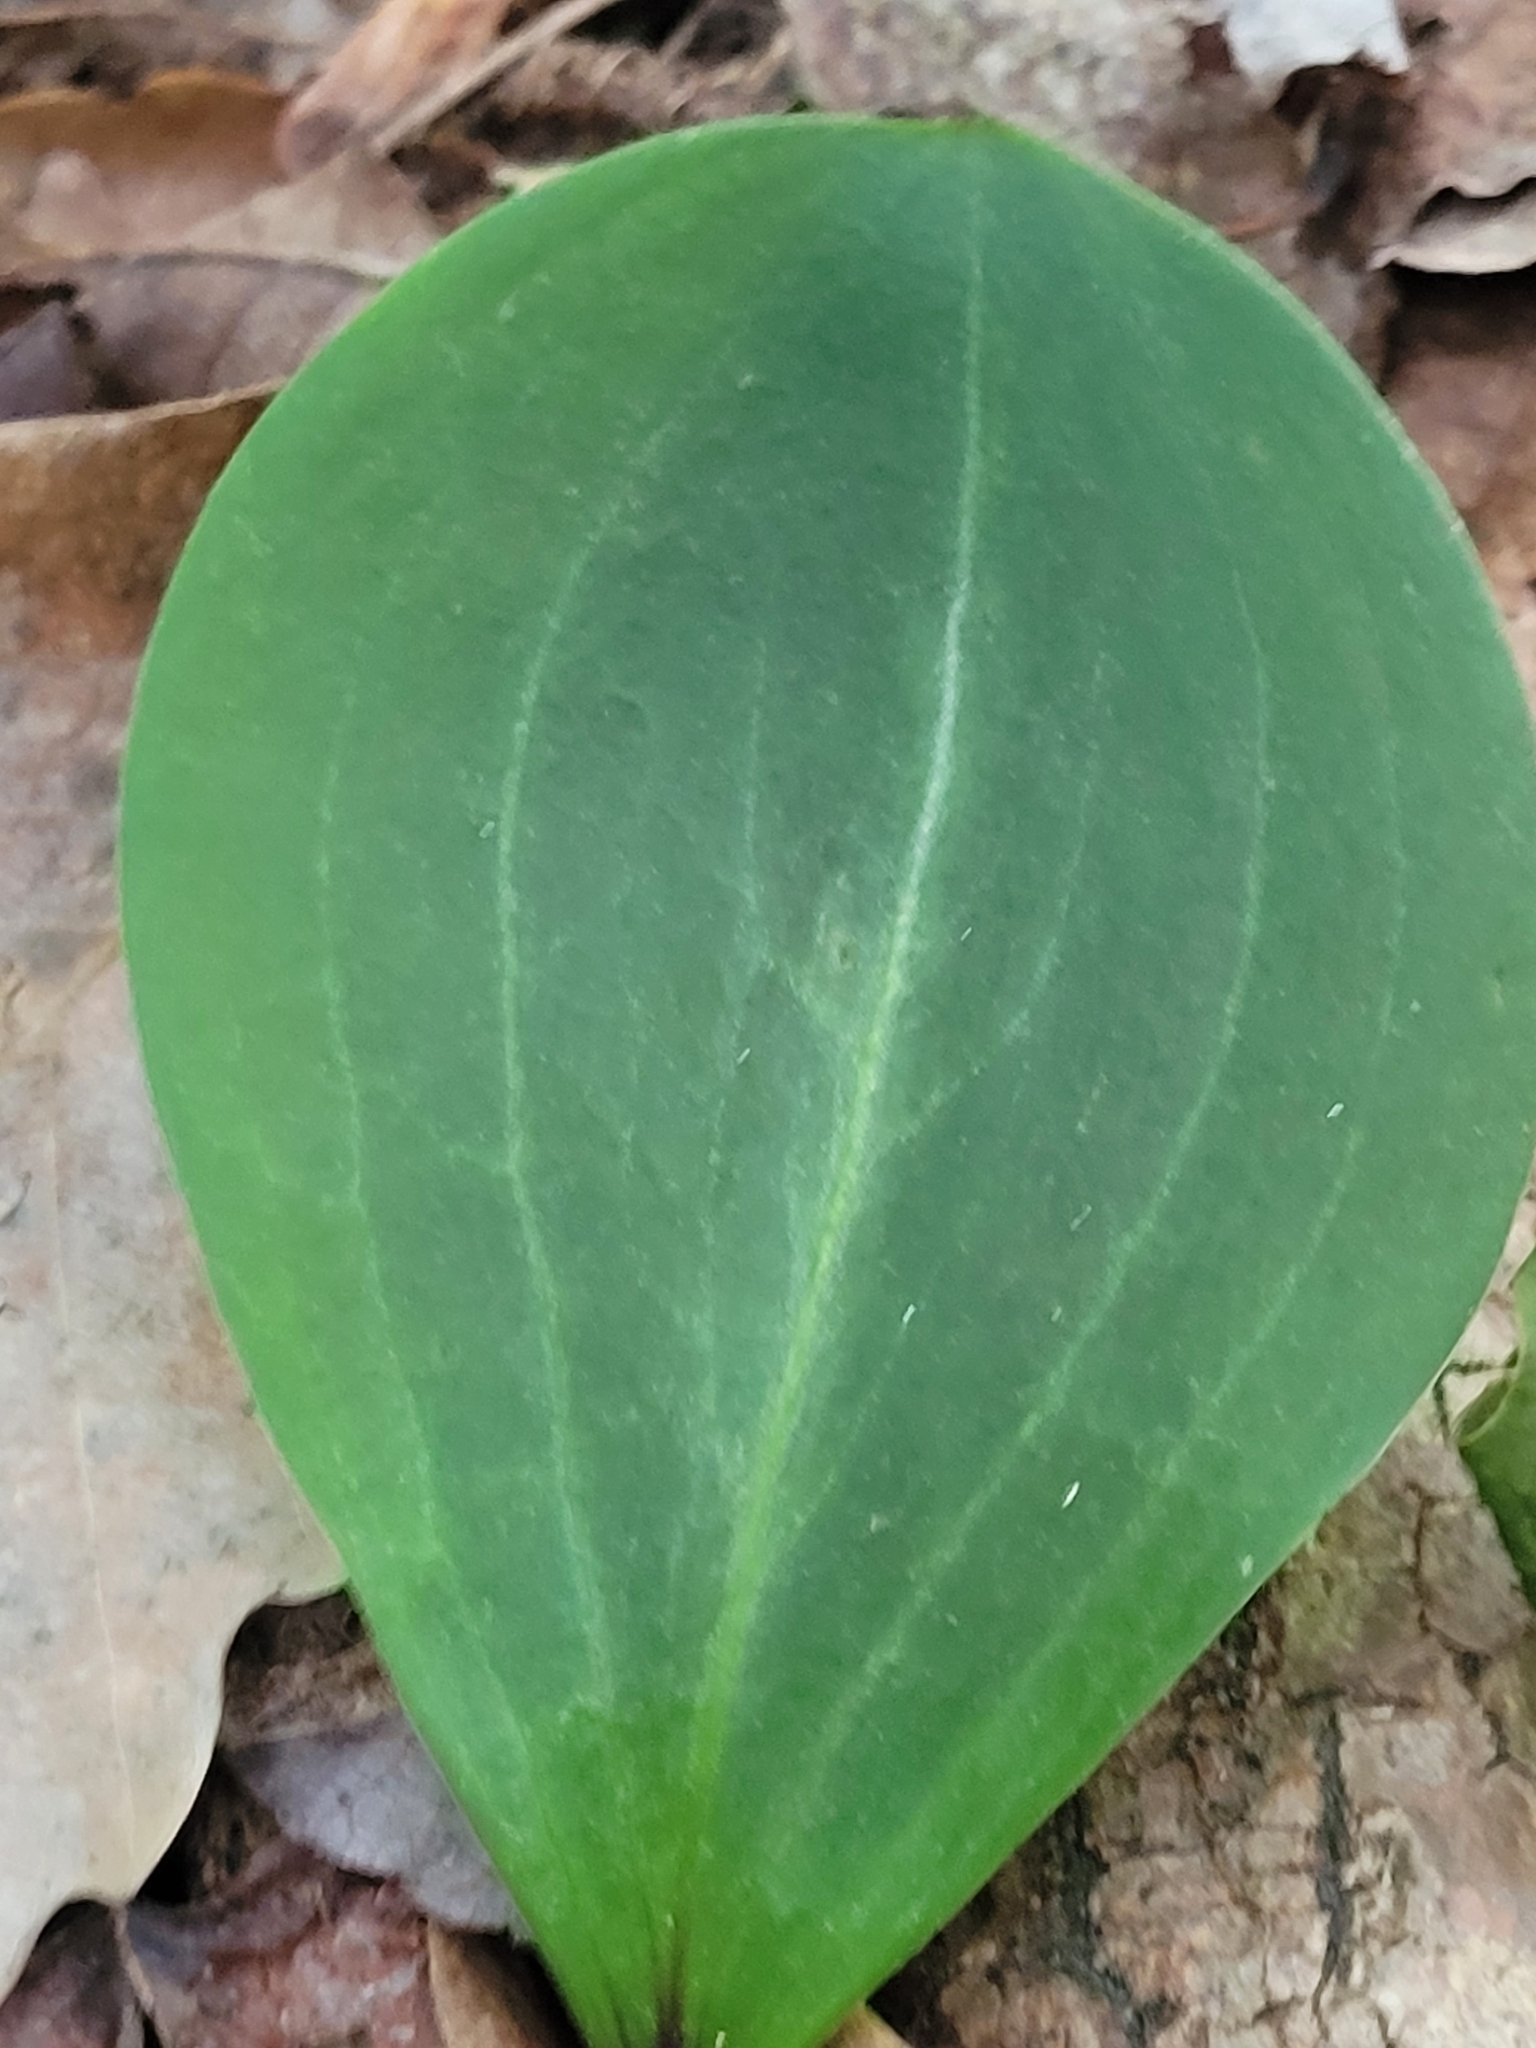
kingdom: Plantae
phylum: Tracheophyta
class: Magnoliopsida
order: Asterales
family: Asteraceae
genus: Antennaria
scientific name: Antennaria plantaginifolia
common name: Plantain-leaved pussytoes
